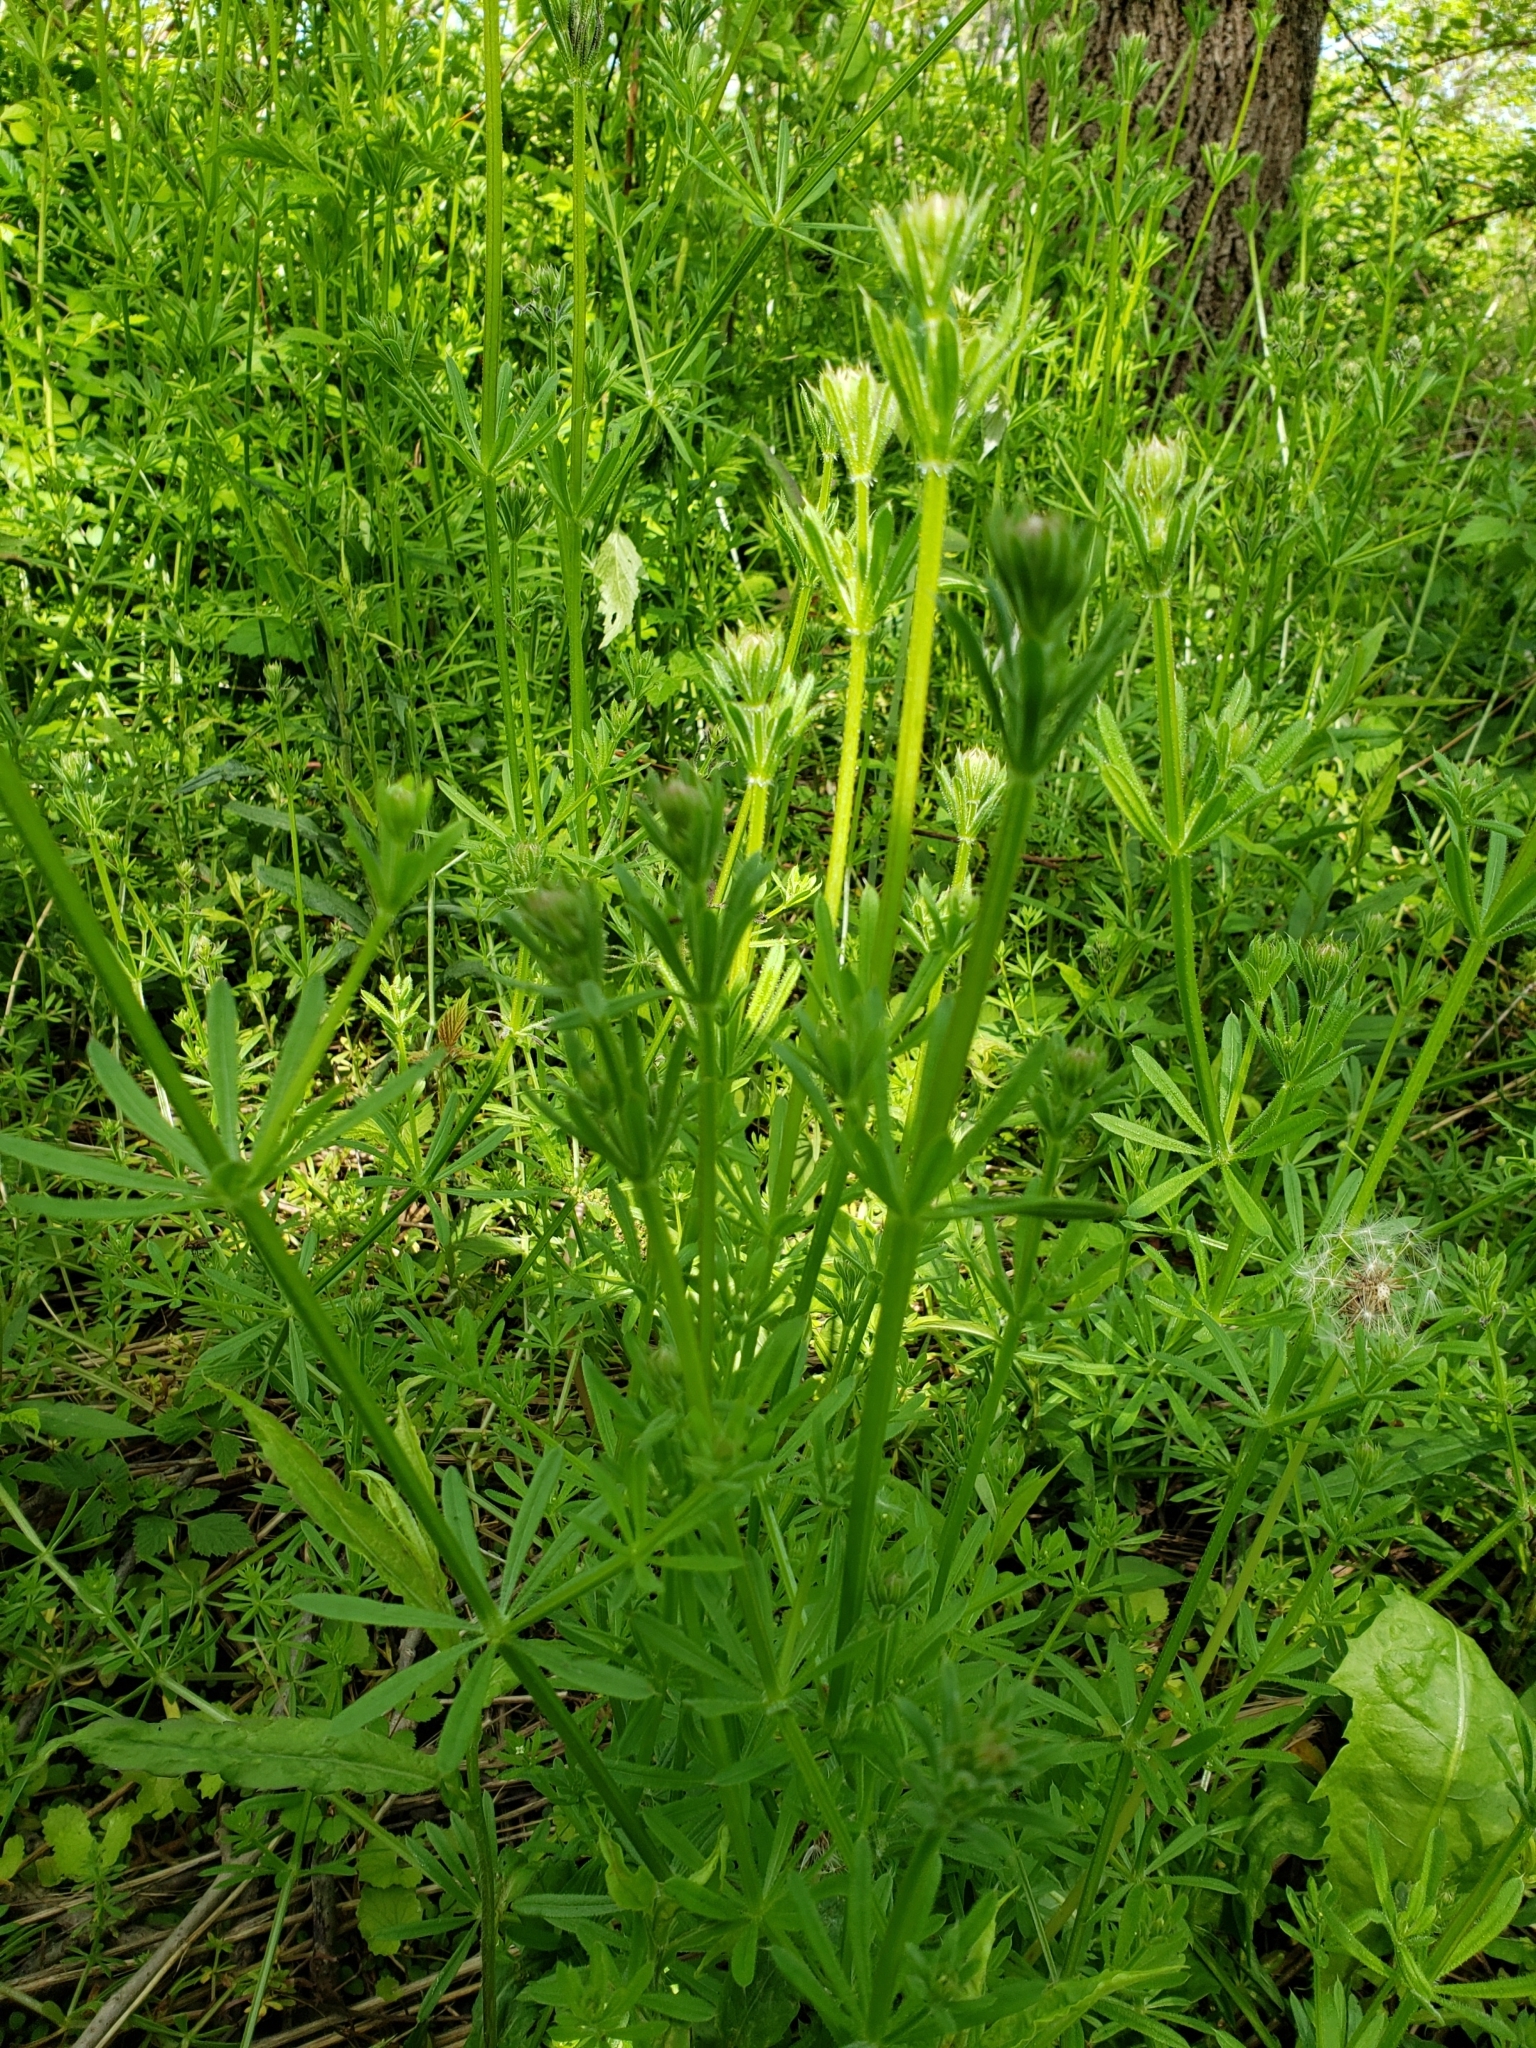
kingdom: Plantae
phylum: Tracheophyta
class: Magnoliopsida
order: Gentianales
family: Rubiaceae
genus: Galium
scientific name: Galium aparine
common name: Cleavers
